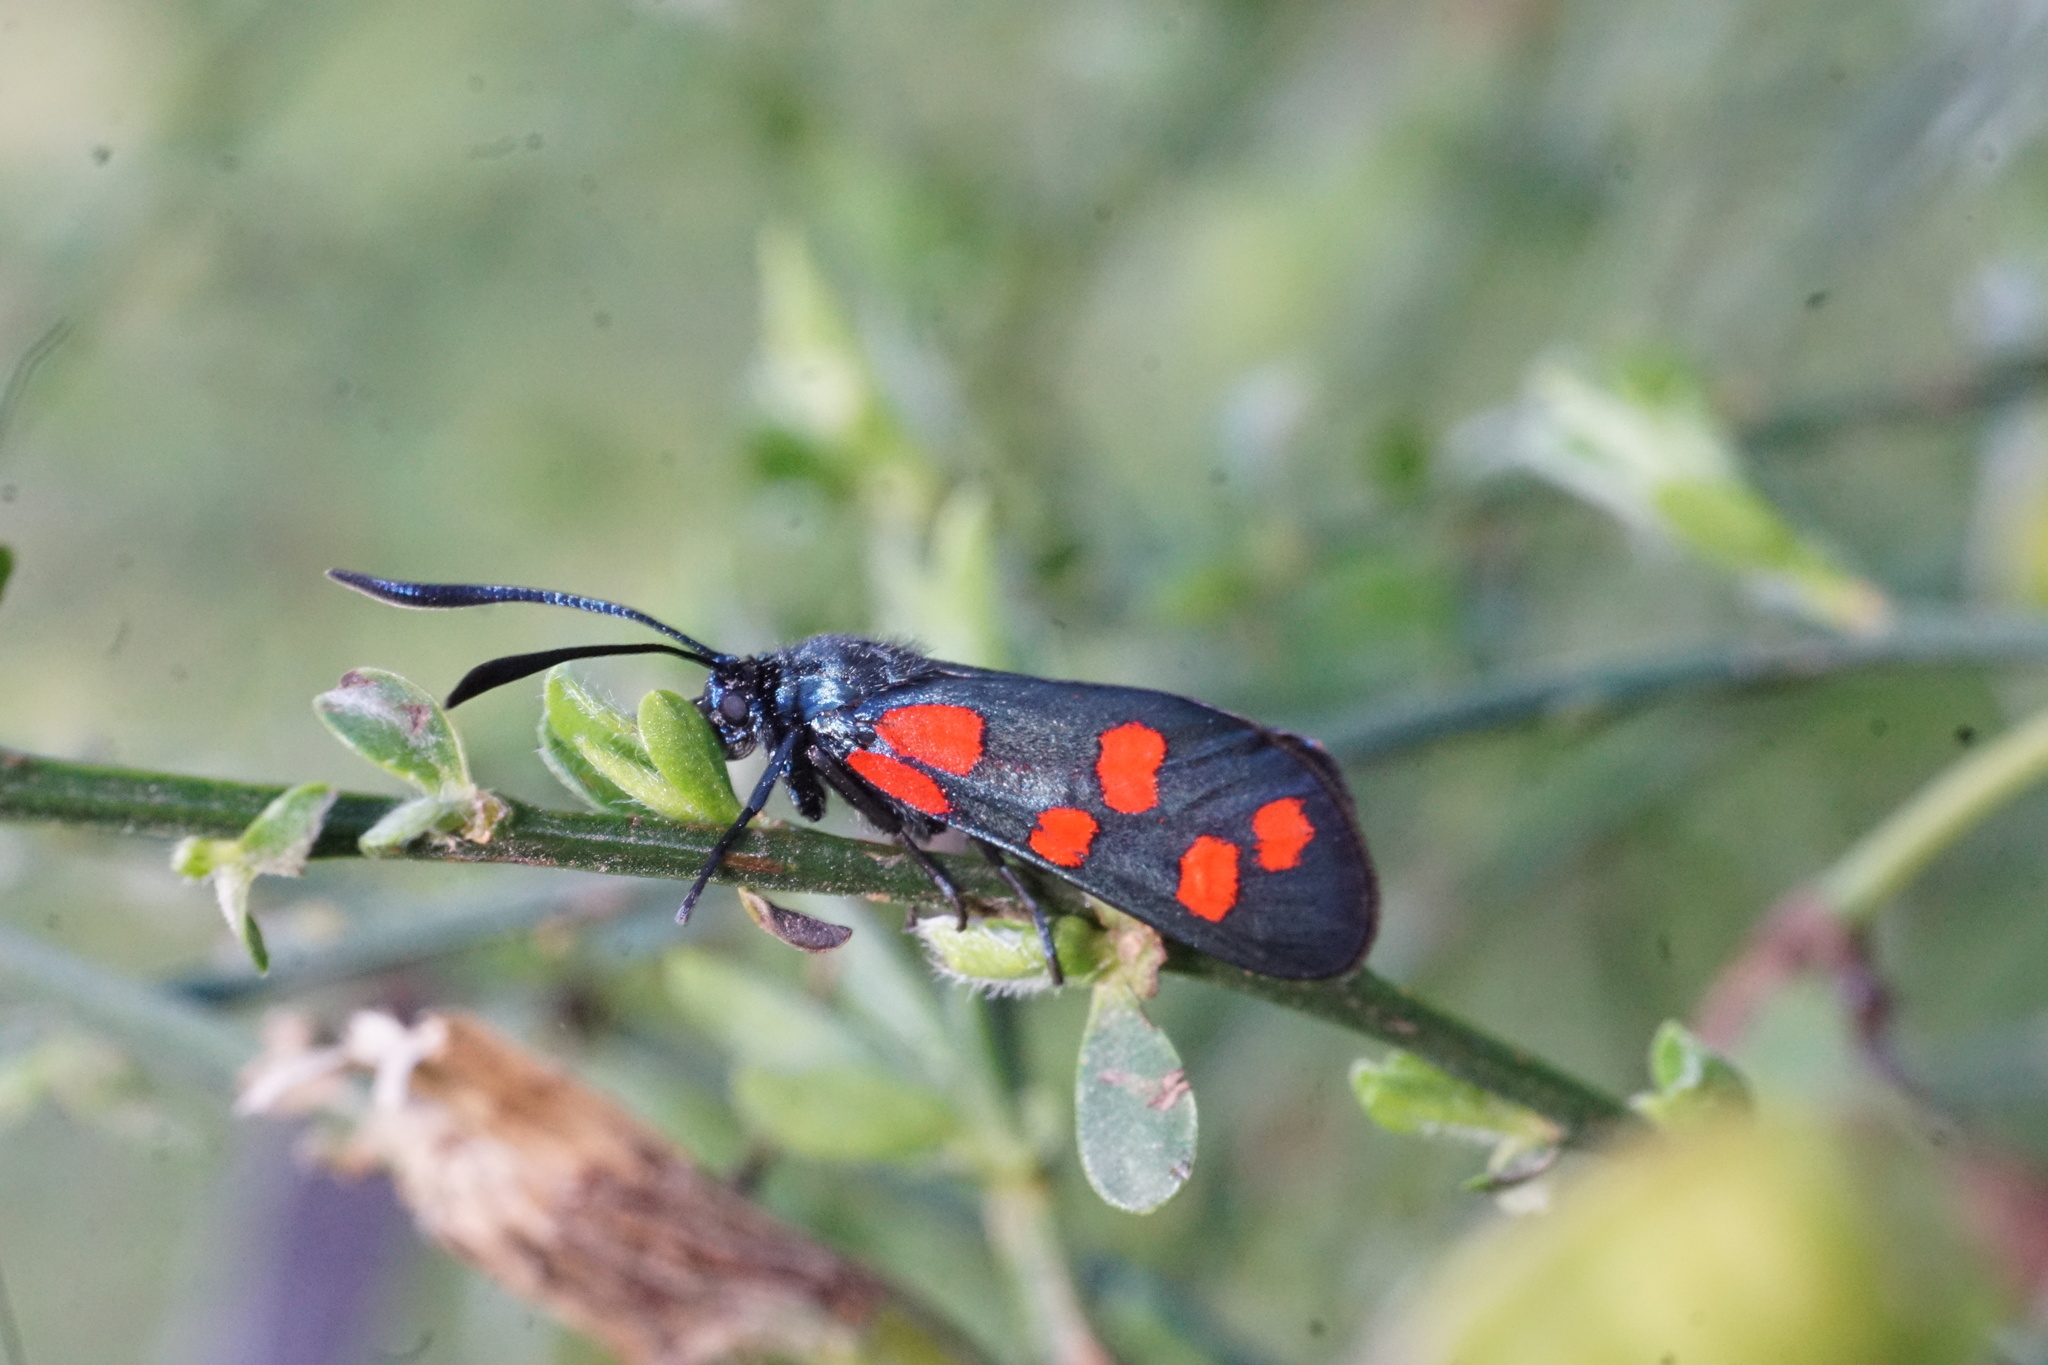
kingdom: Animalia
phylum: Arthropoda
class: Insecta
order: Lepidoptera
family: Zygaenidae
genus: Zygaena
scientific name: Zygaena filipendulae
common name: Six-spot burnet
